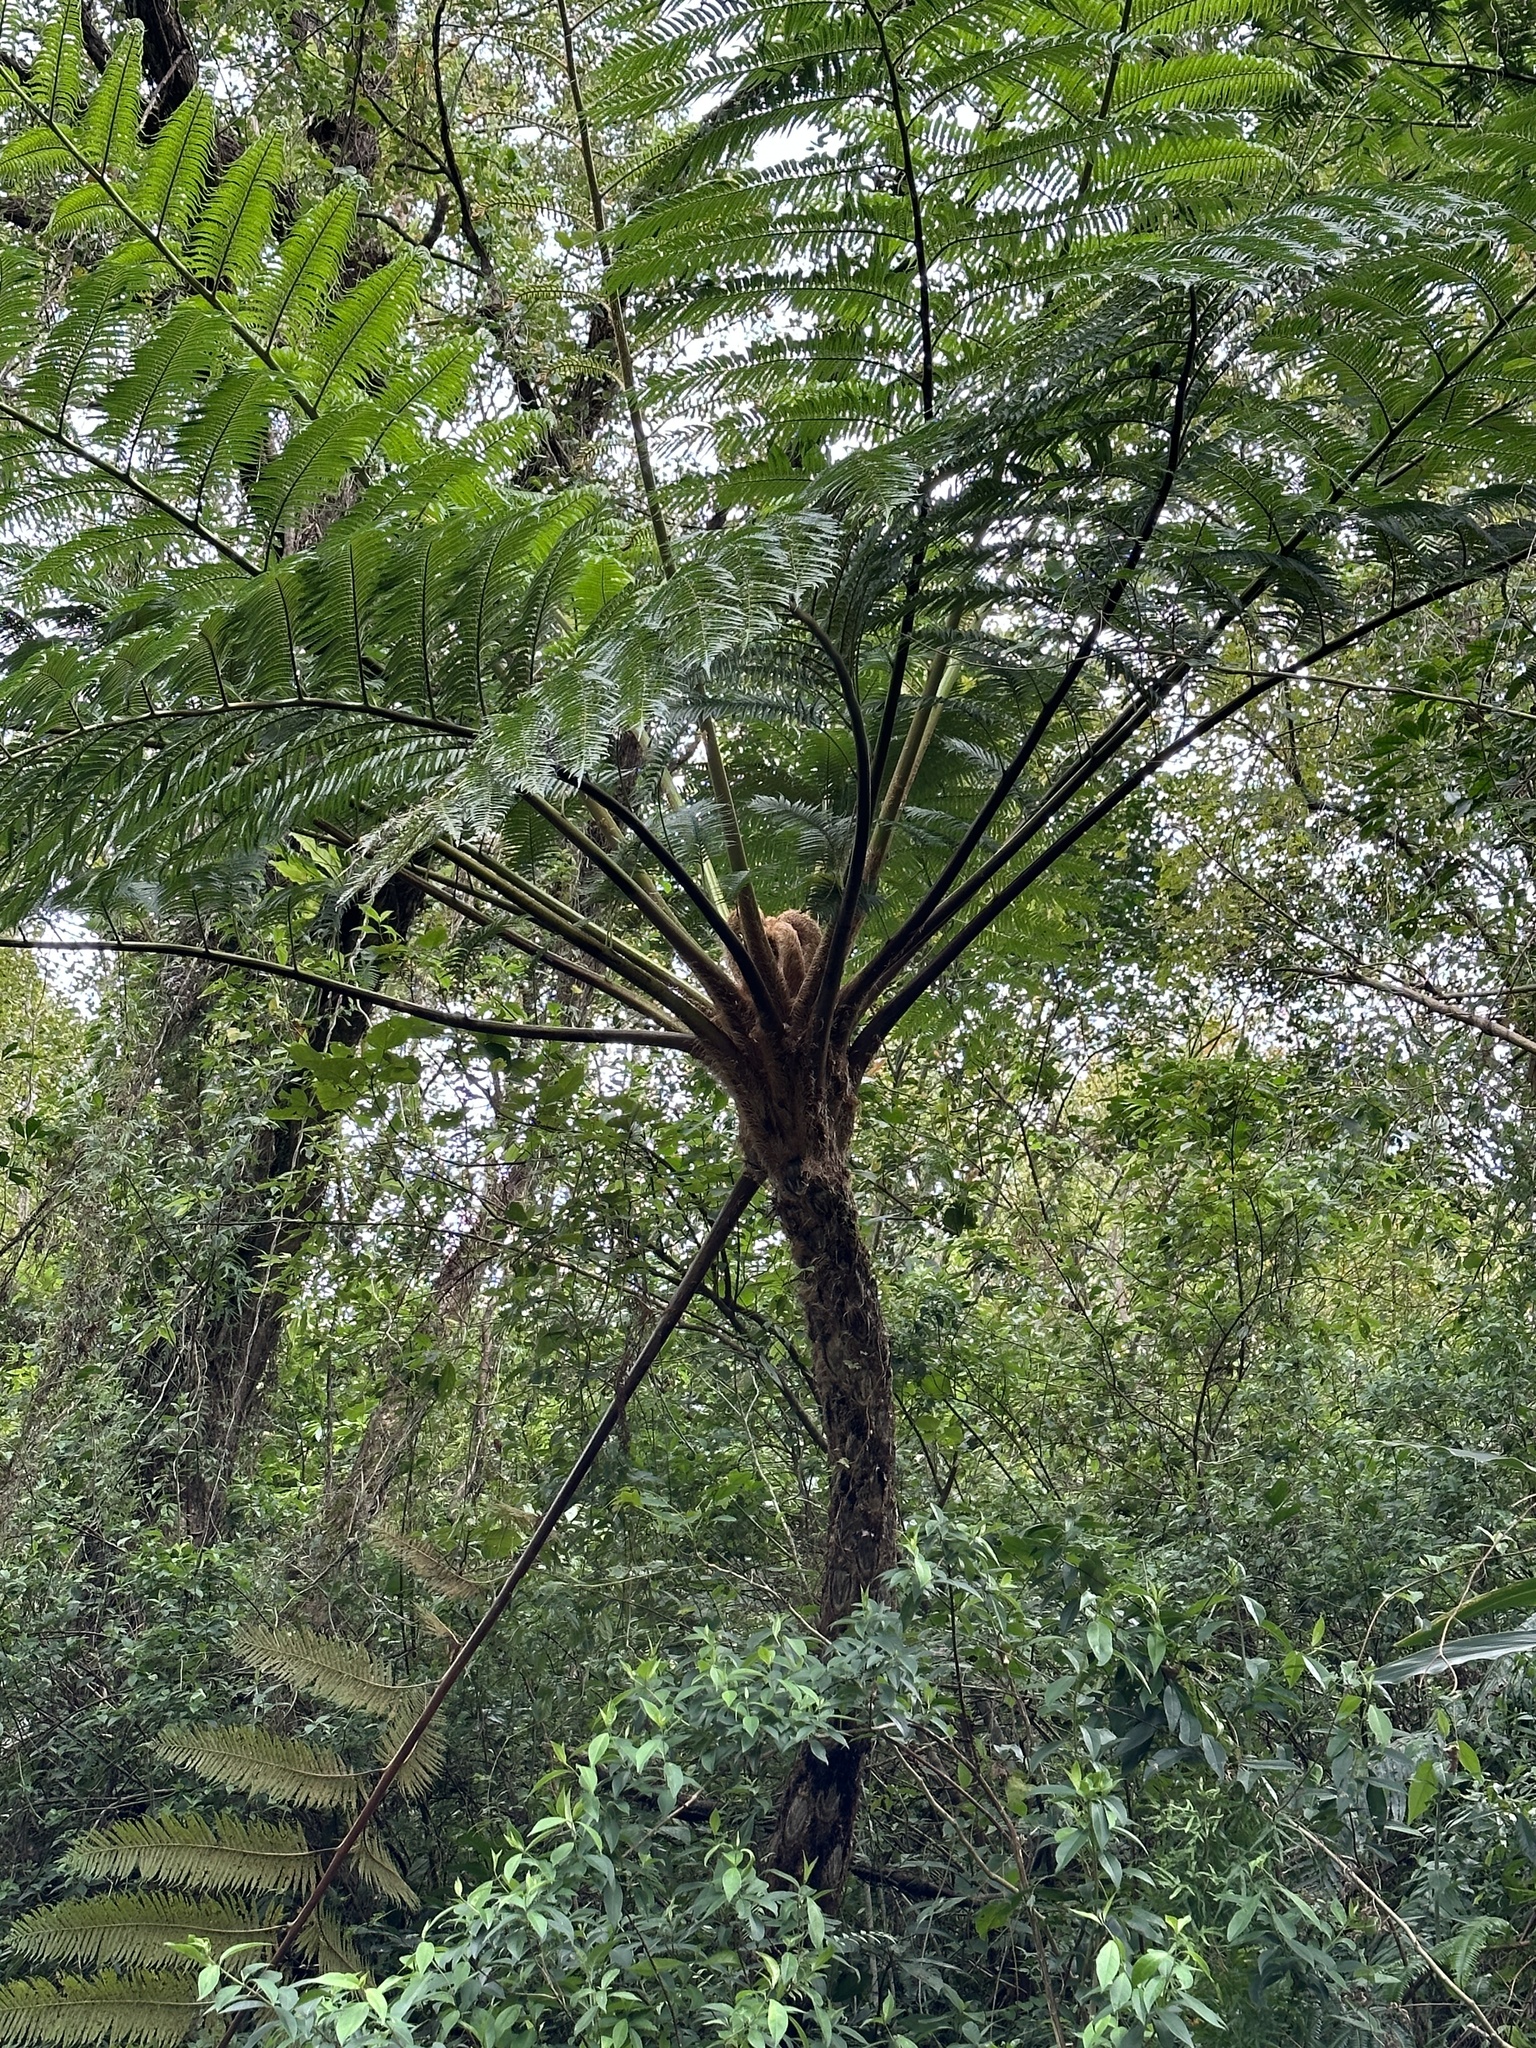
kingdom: Plantae
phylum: Tracheophyta
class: Polypodiopsida
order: Cyatheales
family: Cyatheaceae
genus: Alsophila
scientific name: Alsophila lepifera
